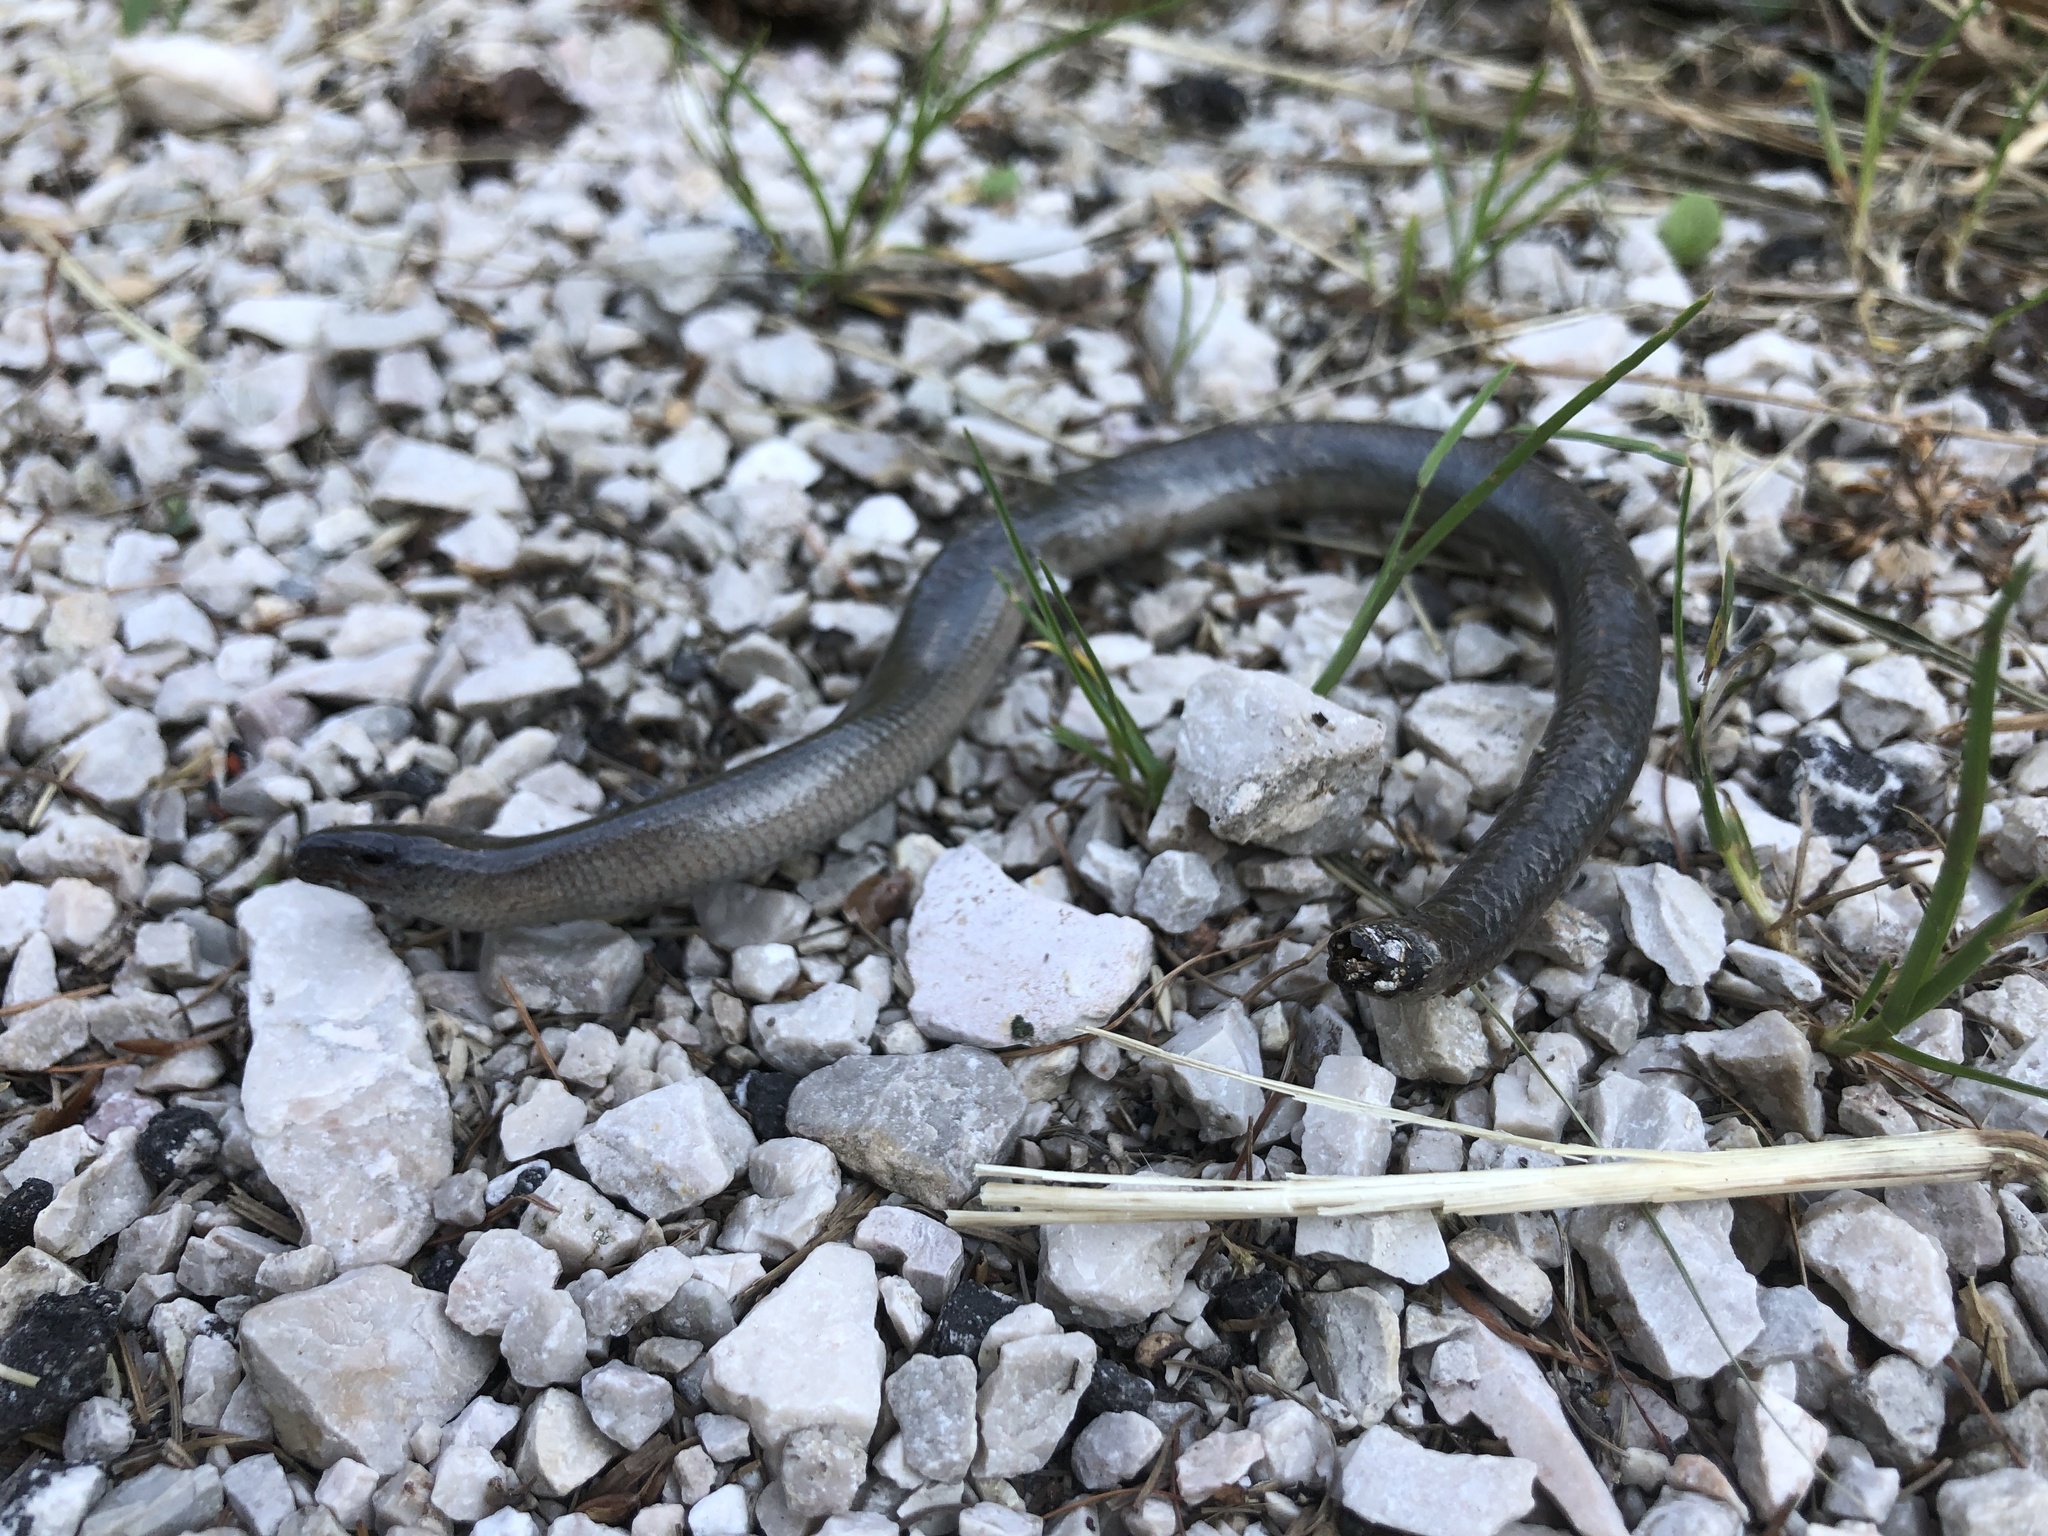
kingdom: Animalia
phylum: Chordata
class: Squamata
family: Anguidae
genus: Anguis
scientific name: Anguis veronensis
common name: Italian slow worm
